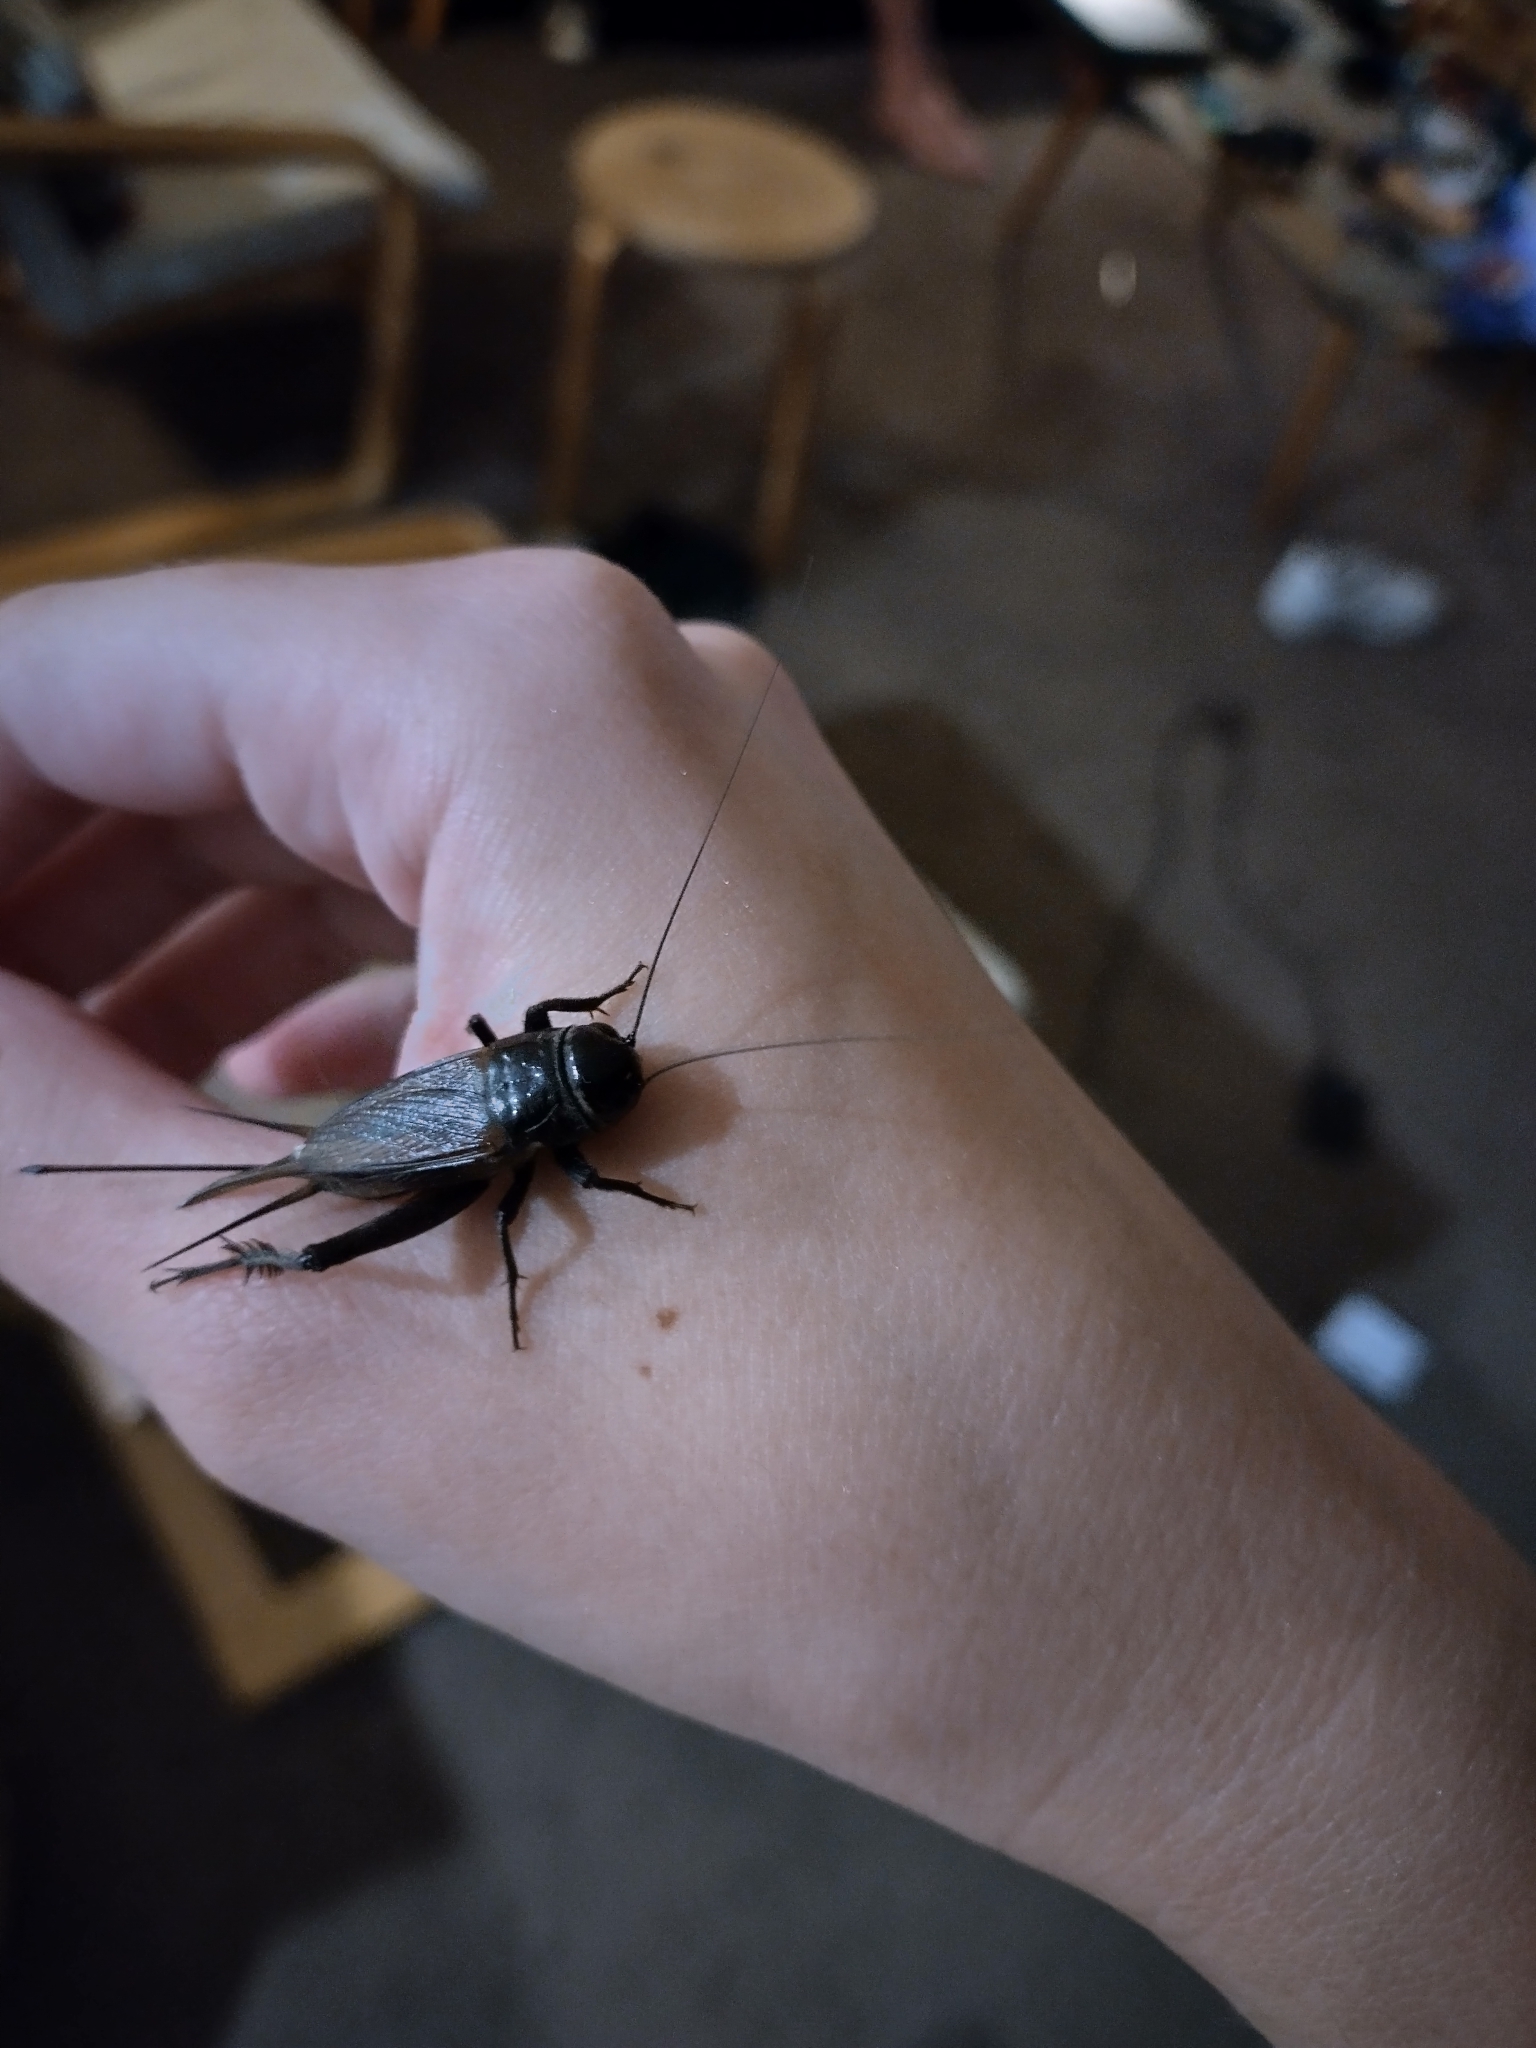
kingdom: Animalia
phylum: Arthropoda
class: Insecta
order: Orthoptera
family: Gryllidae
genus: Teleogryllus
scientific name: Teleogryllus commodus
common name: Black field cricket
